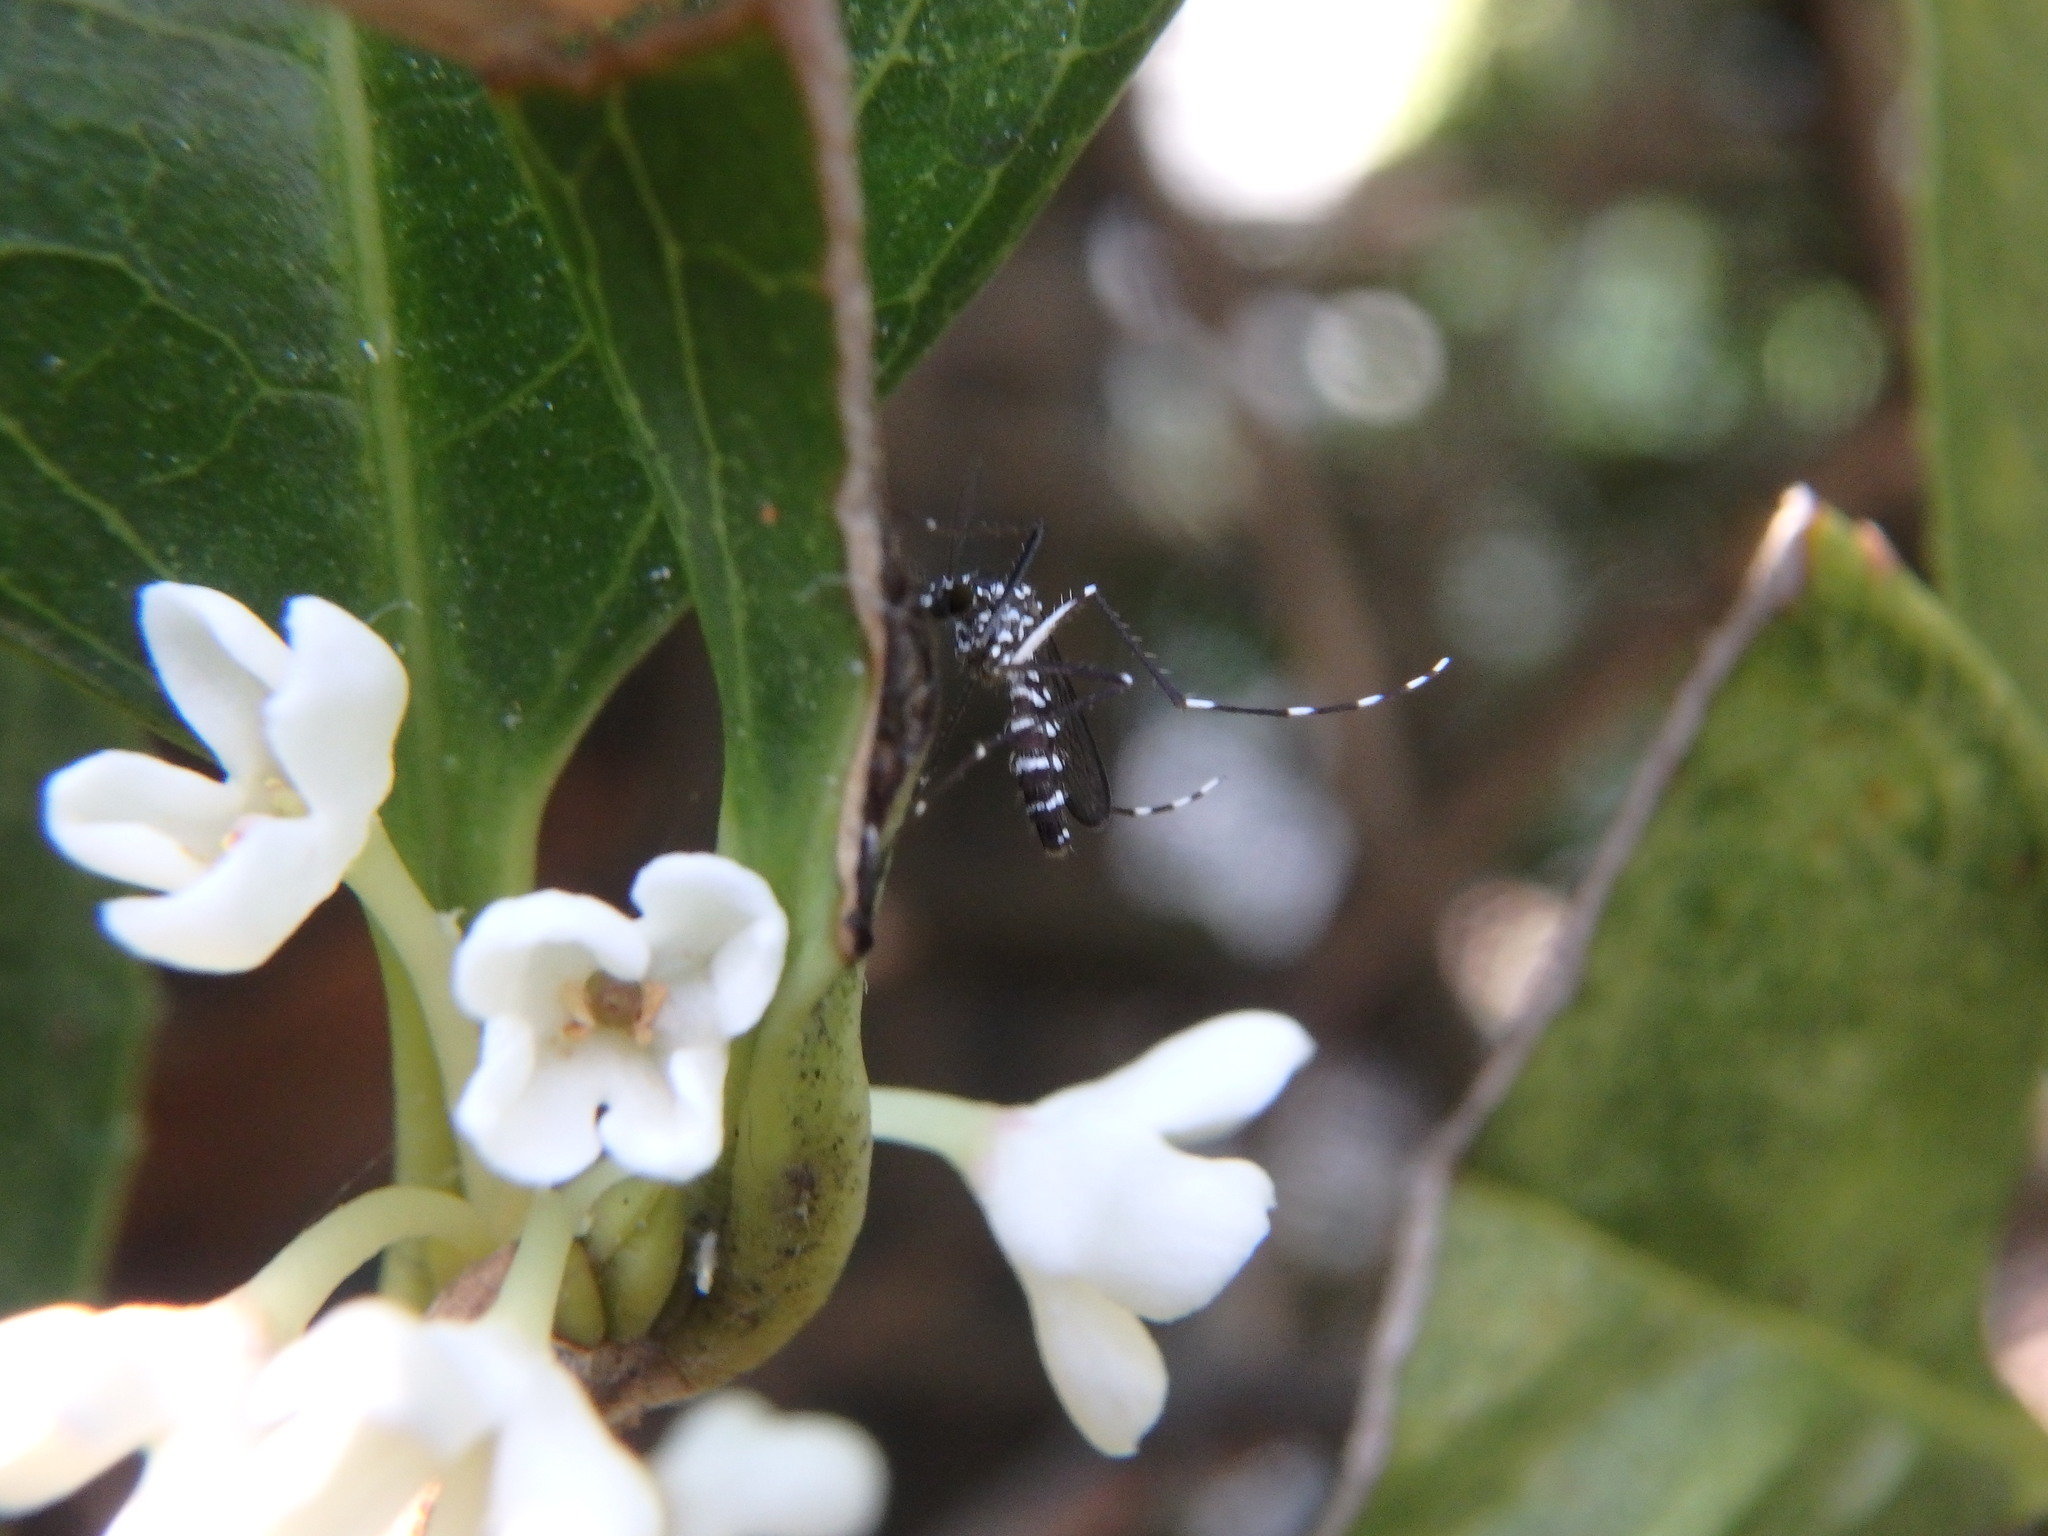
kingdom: Animalia
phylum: Arthropoda
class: Insecta
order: Diptera
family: Culicidae
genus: Aedes
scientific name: Aedes albopictus
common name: Tiger mosquito
